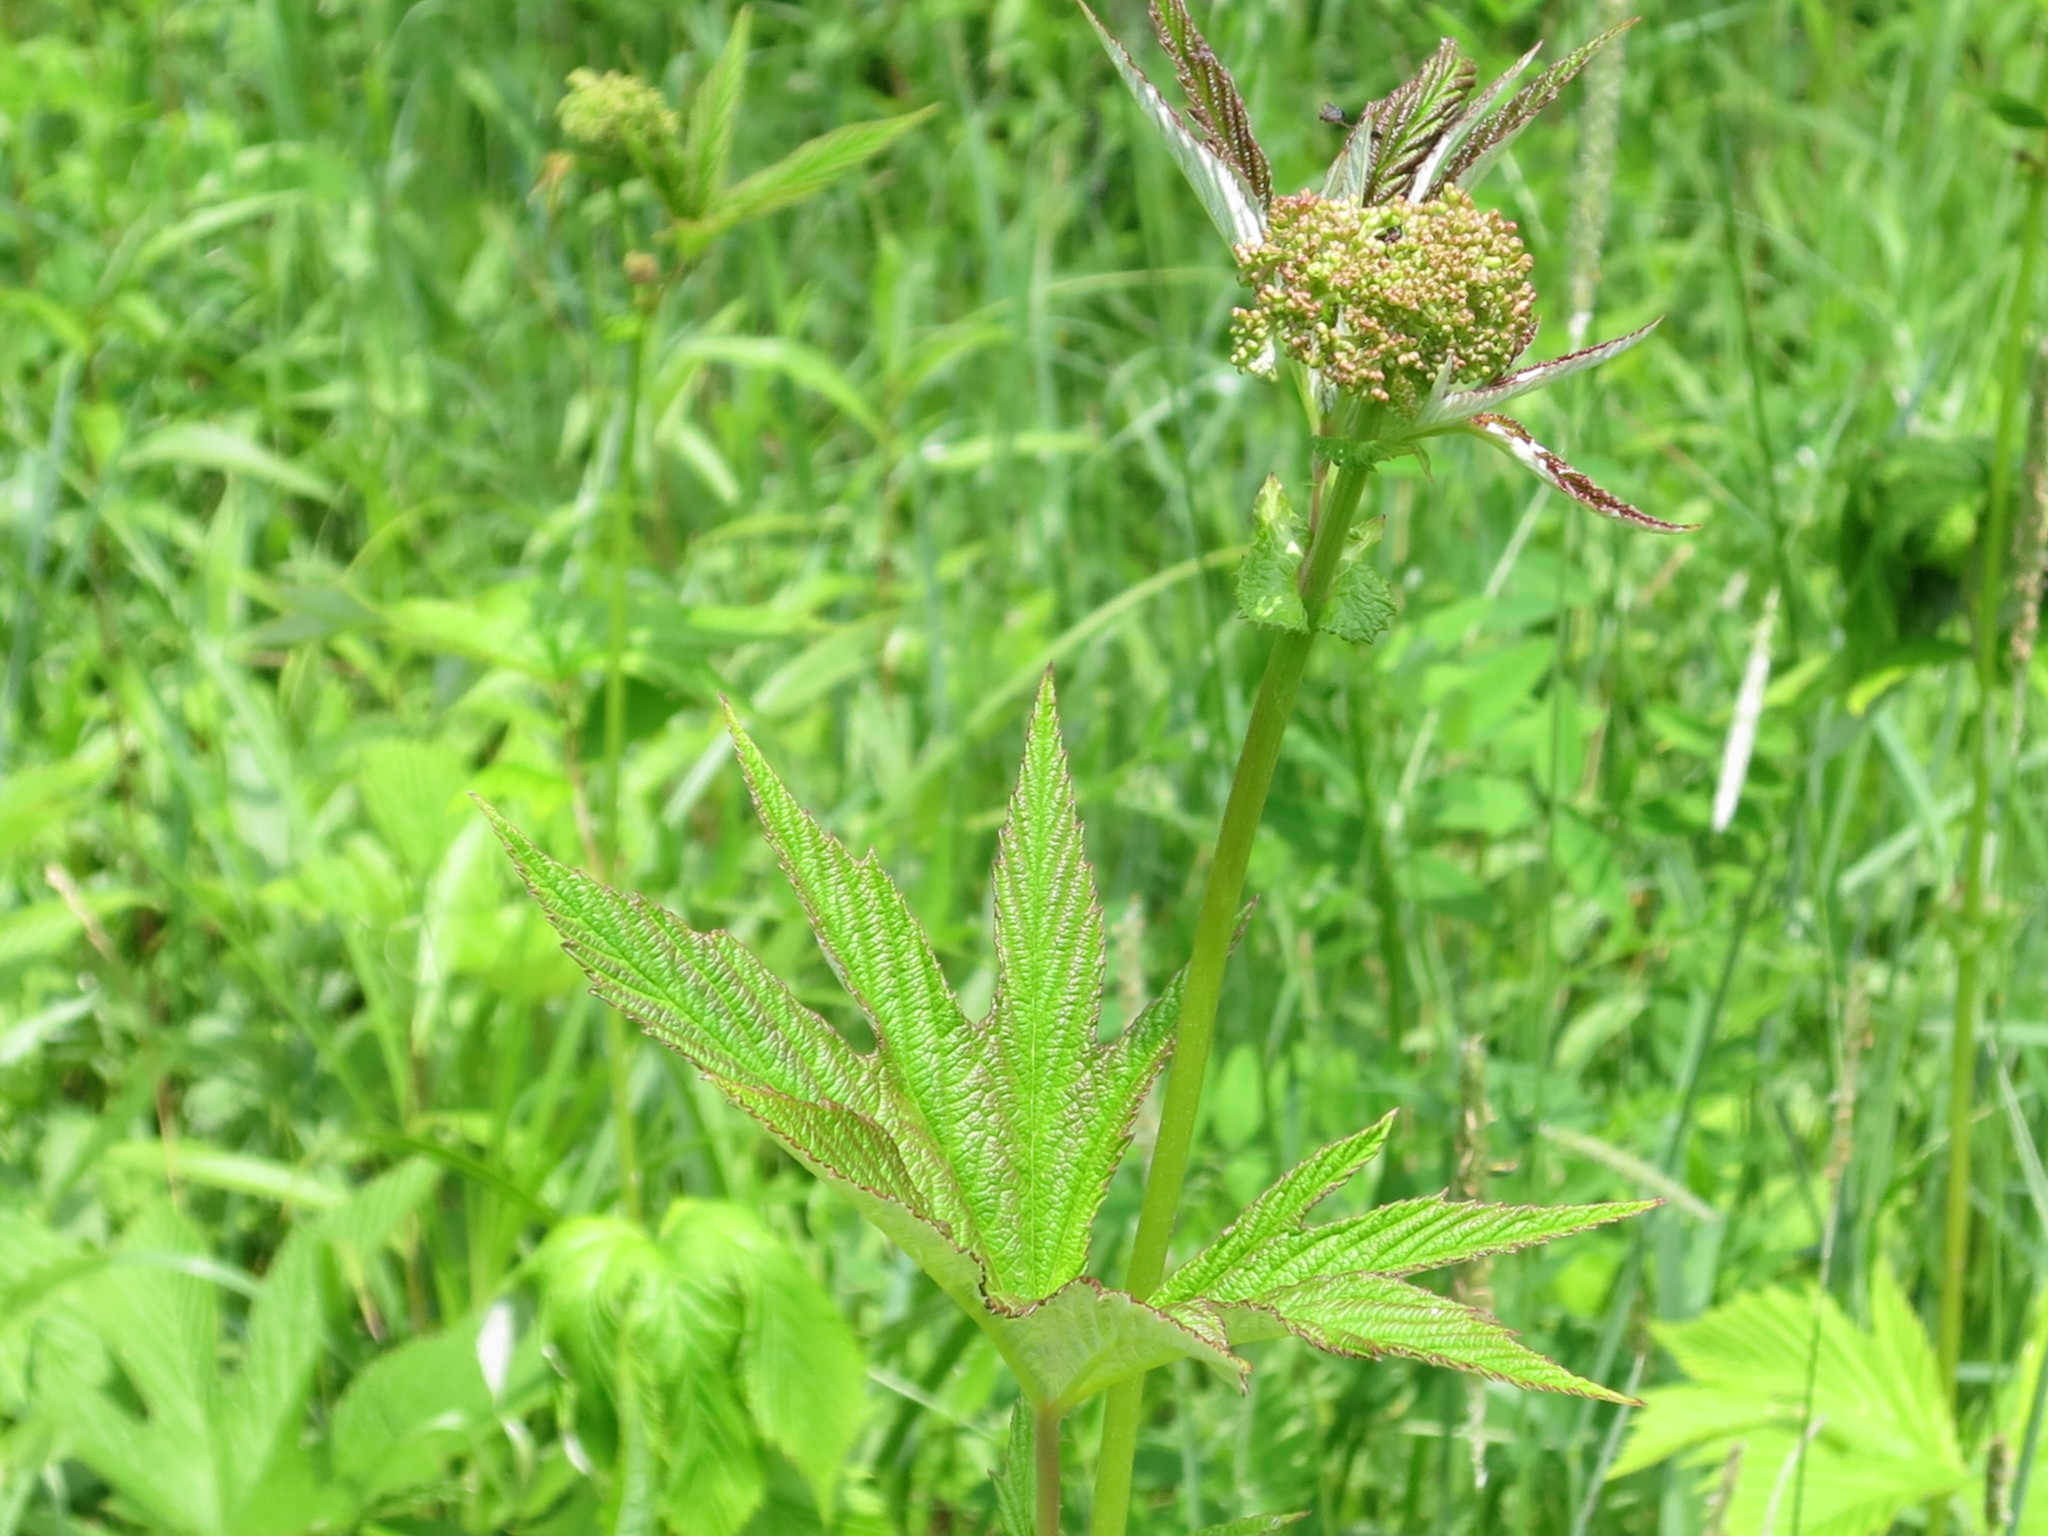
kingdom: Plantae
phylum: Tracheophyta
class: Magnoliopsida
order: Rosales
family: Rosaceae
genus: Filipendula
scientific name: Filipendula digitata
